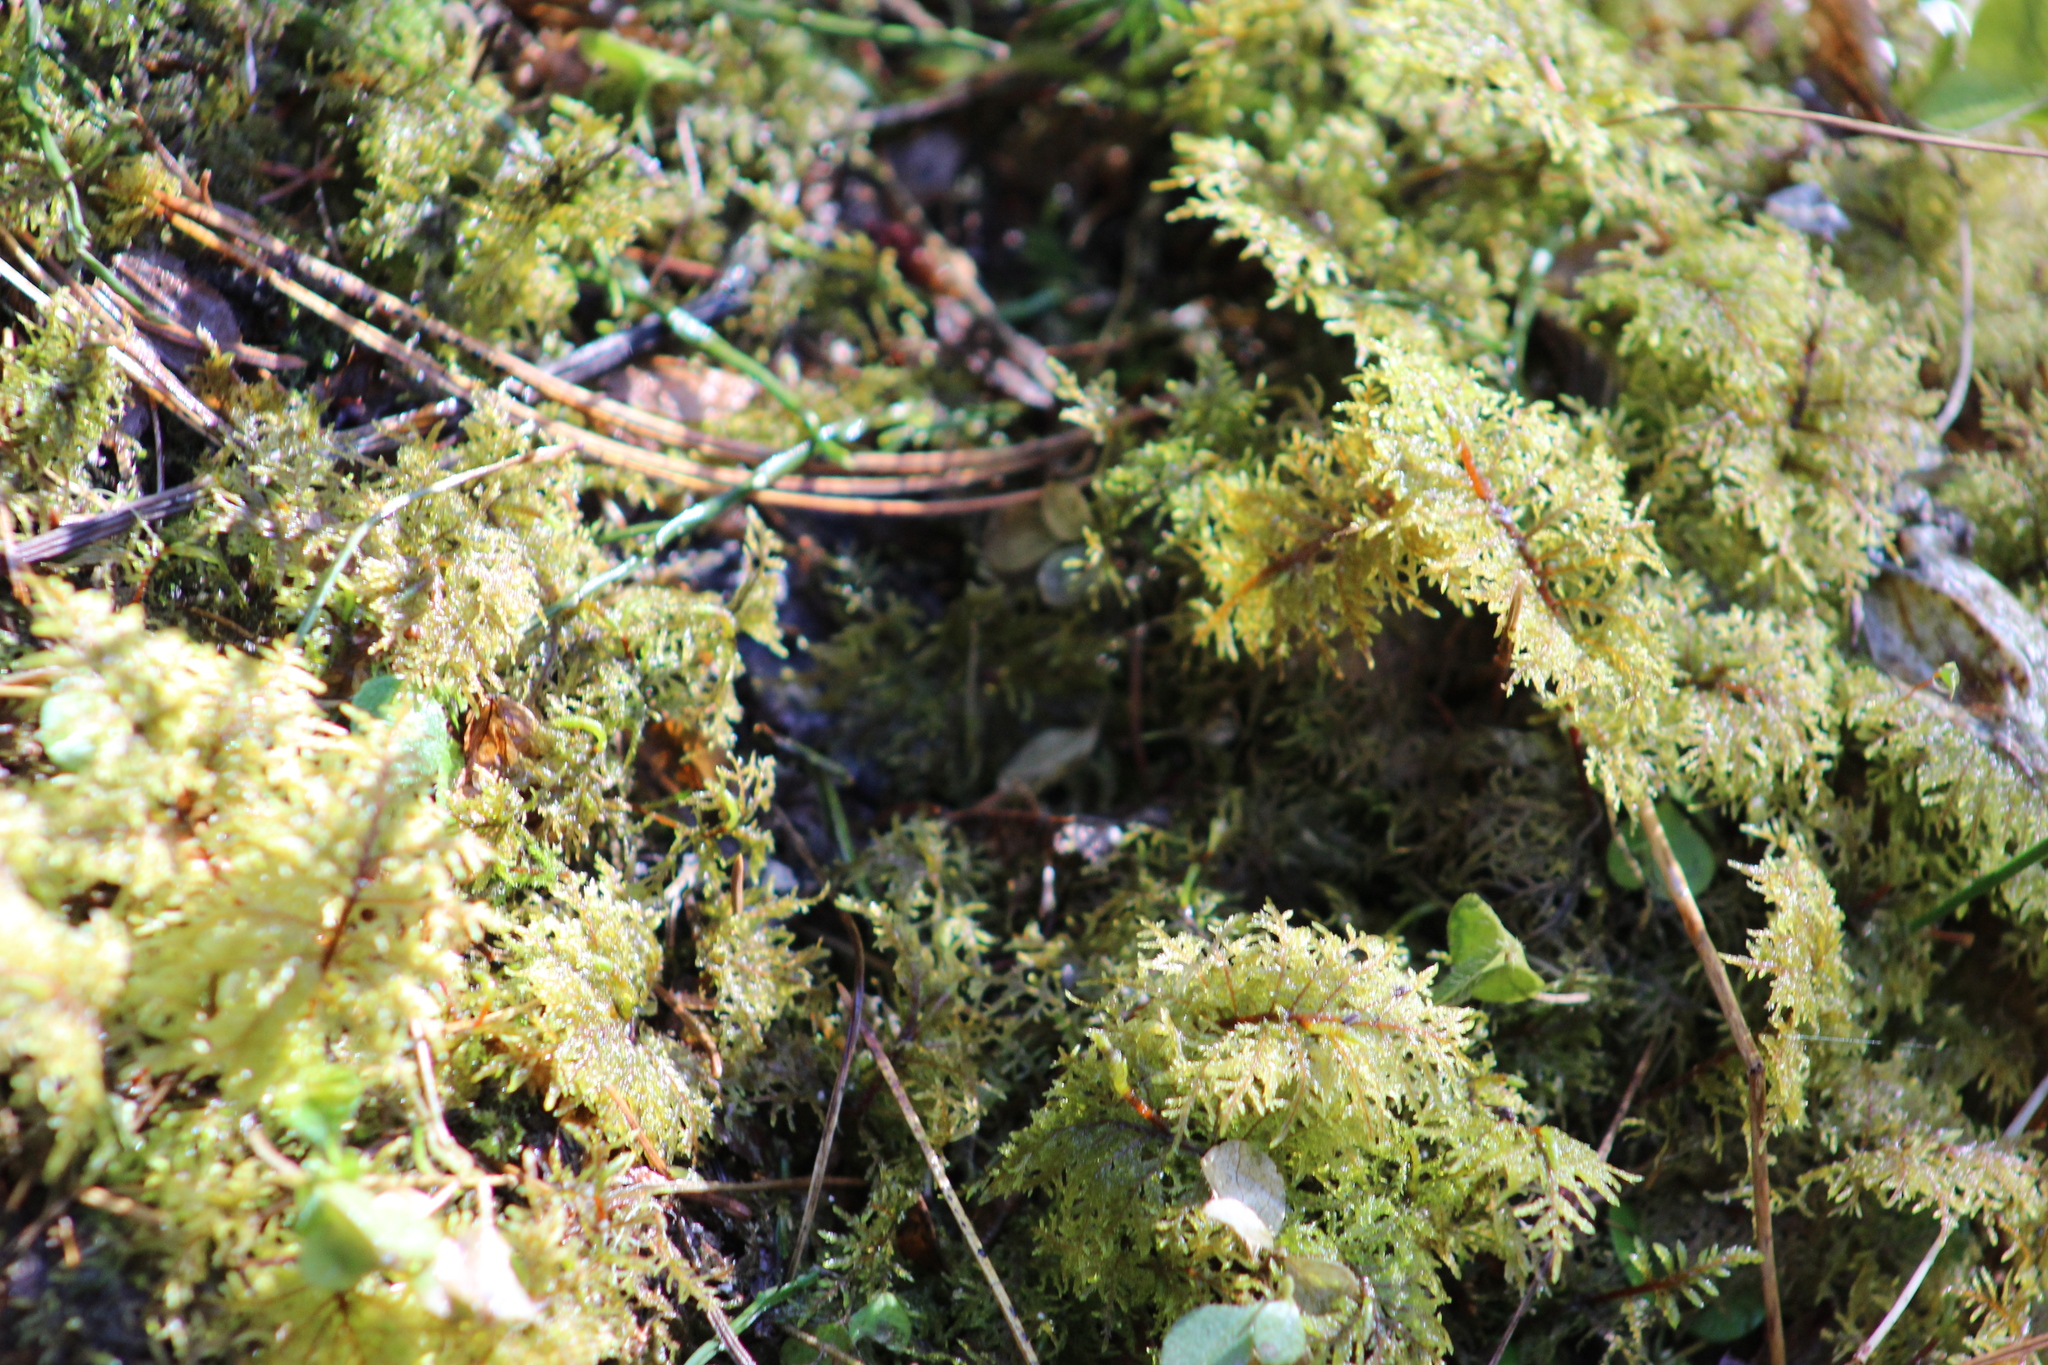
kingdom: Plantae
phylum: Bryophyta
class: Bryopsida
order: Hypnales
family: Hylocomiaceae
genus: Hylocomium
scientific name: Hylocomium splendens
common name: Stairstep moss
